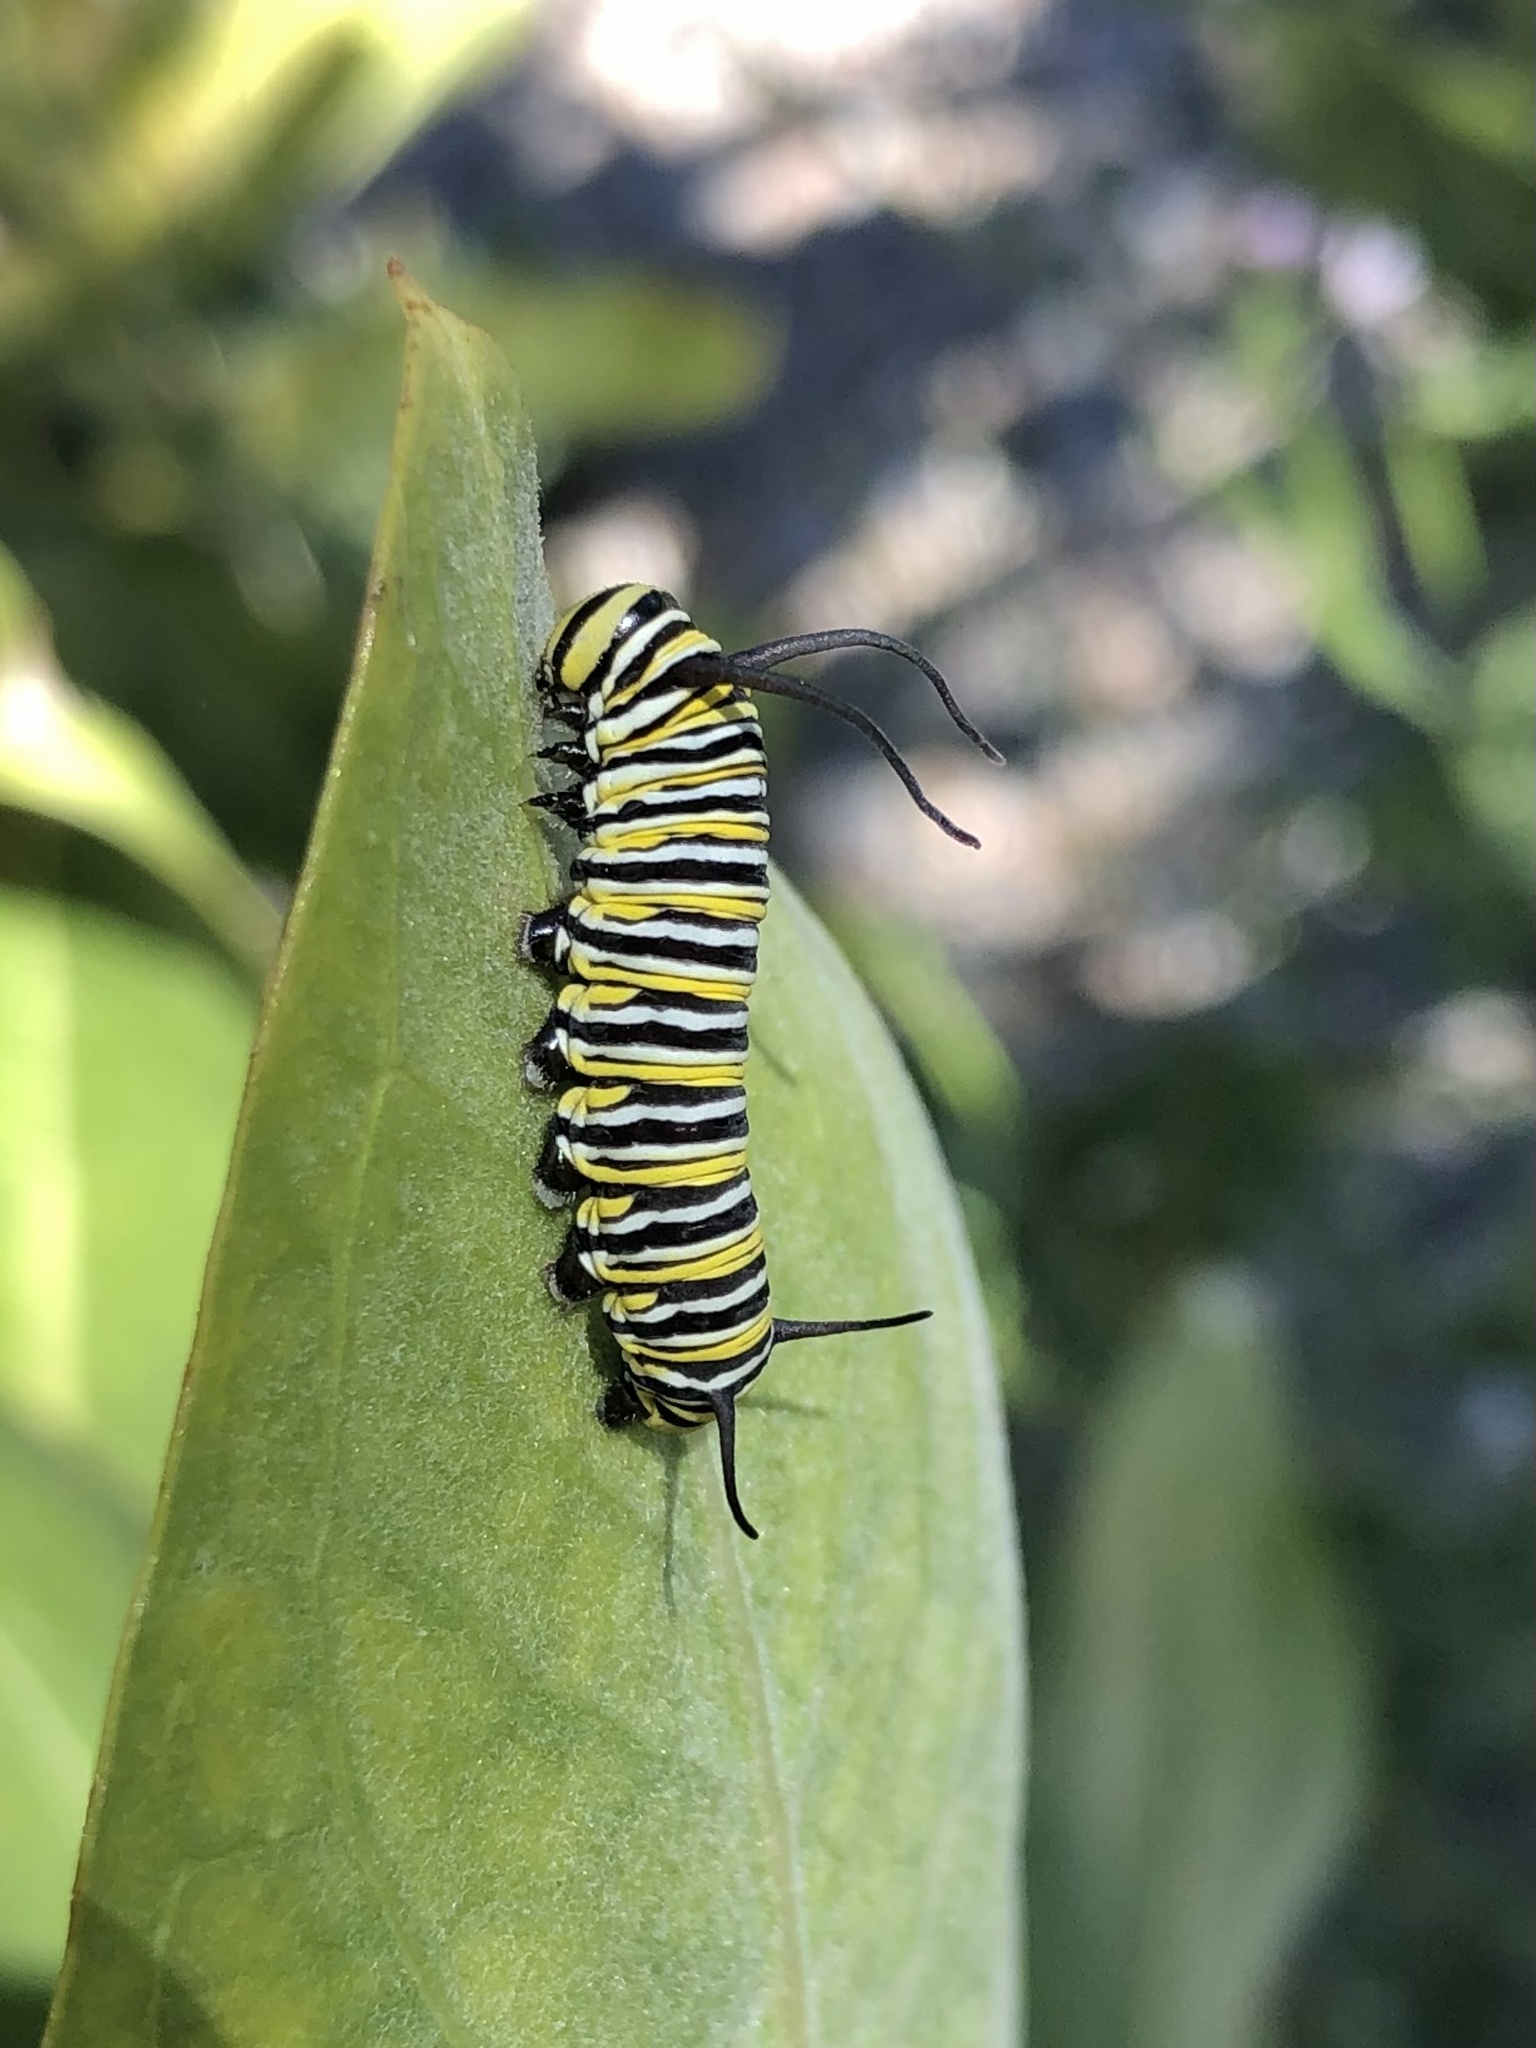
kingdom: Animalia
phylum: Arthropoda
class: Insecta
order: Lepidoptera
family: Nymphalidae
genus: Danaus
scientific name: Danaus plexippus
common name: Monarch
